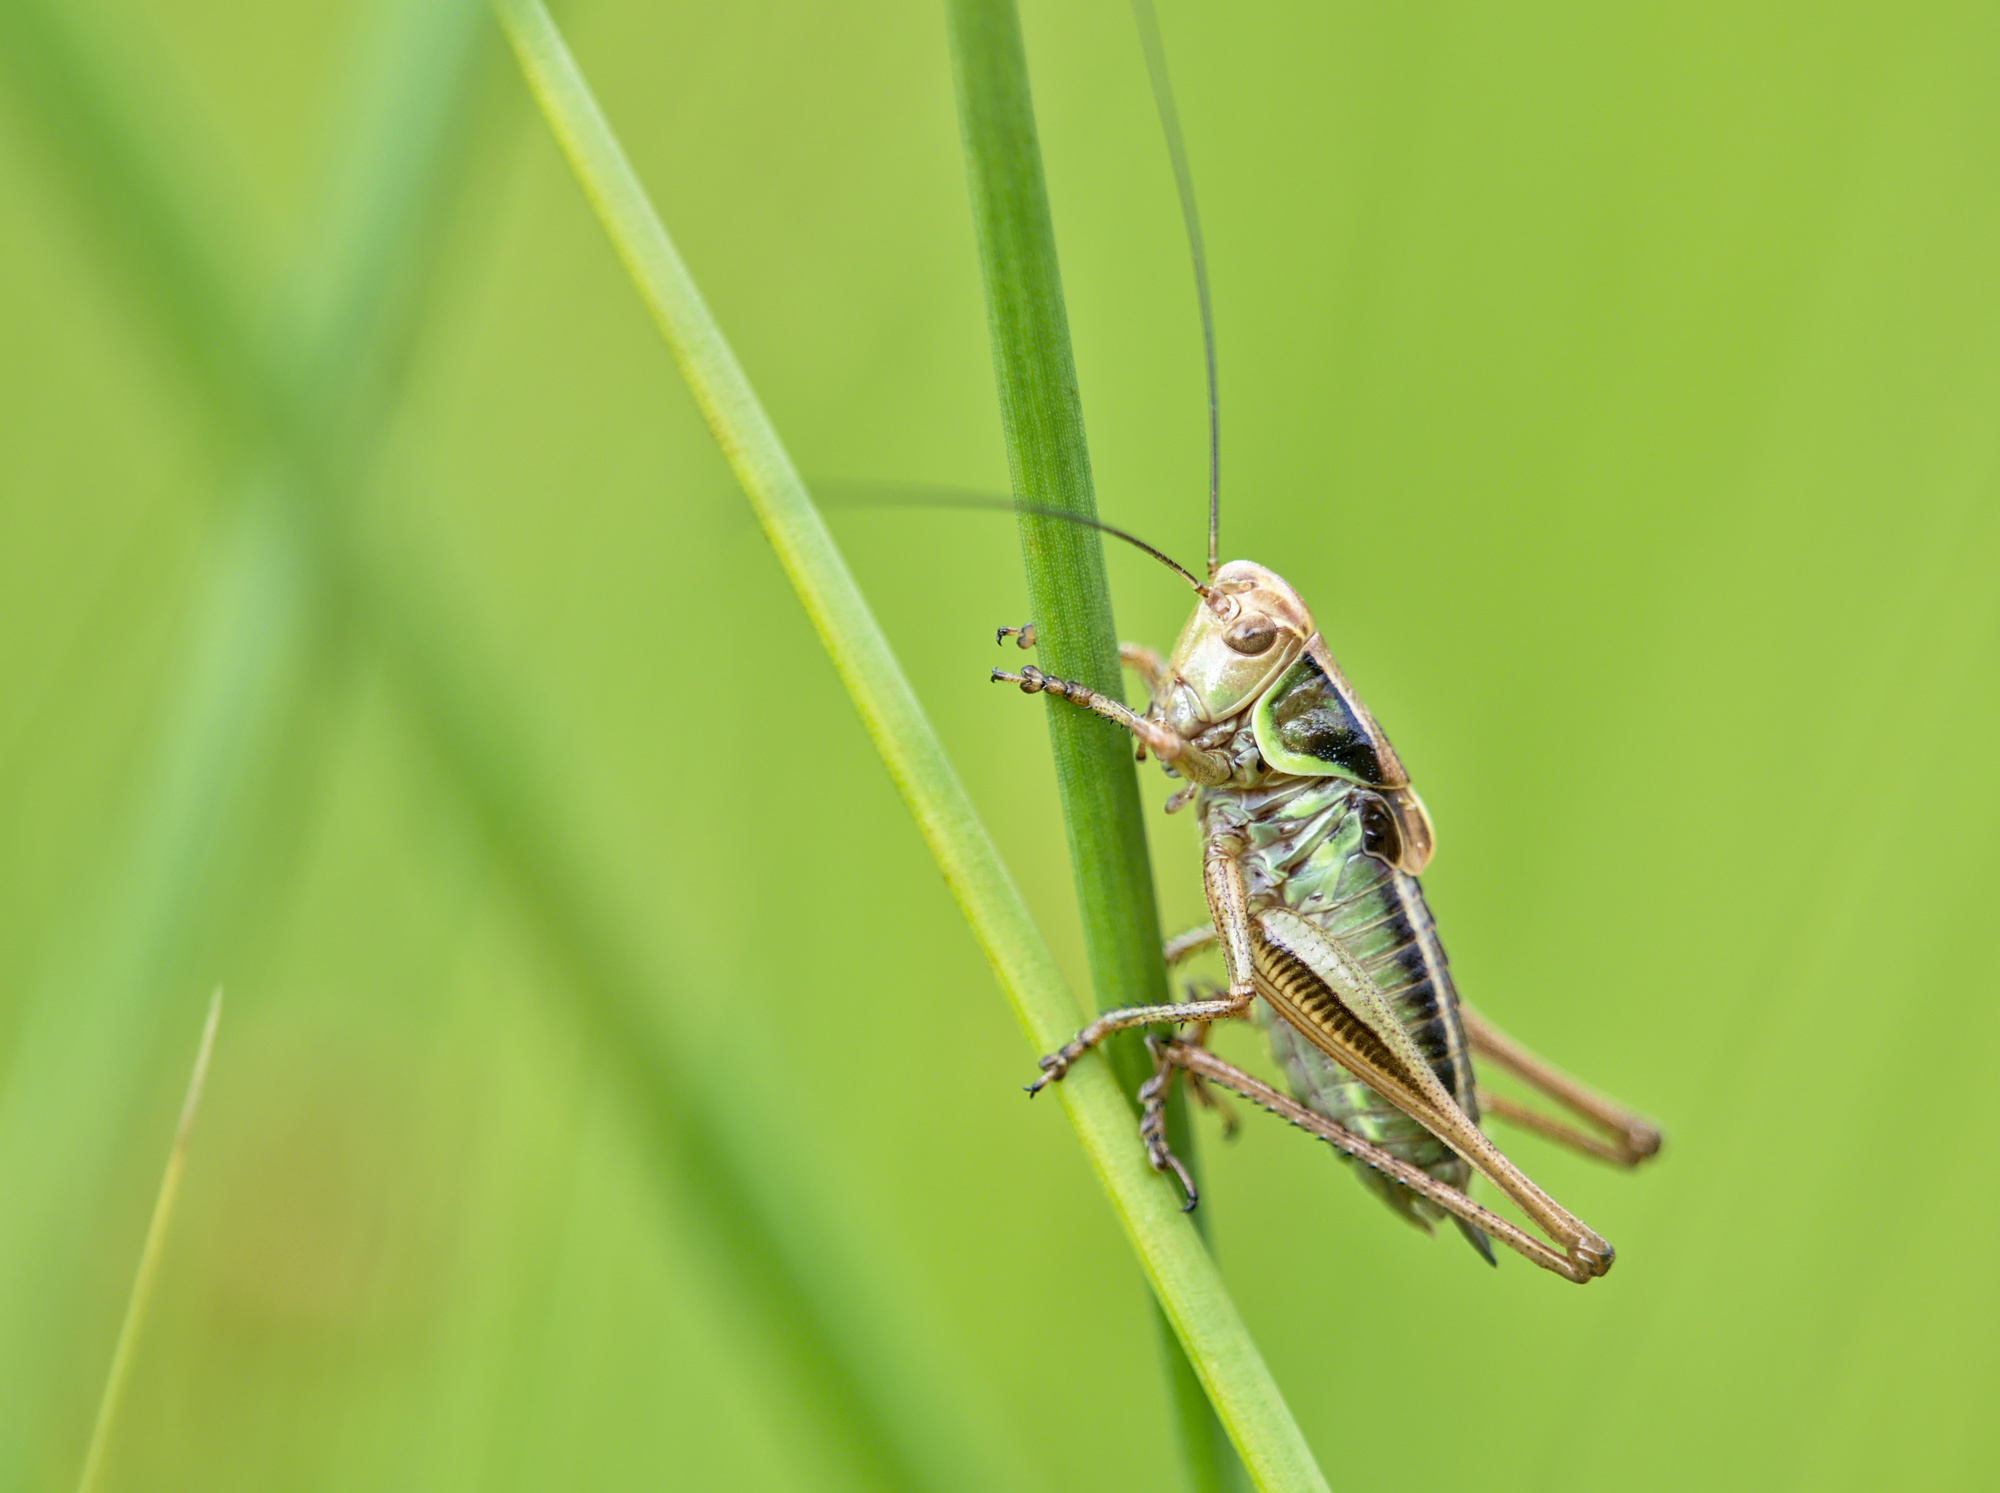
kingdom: Animalia
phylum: Arthropoda
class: Insecta
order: Orthoptera
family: Tettigoniidae
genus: Roeseliana
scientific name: Roeseliana roeselii
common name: Roesel's bush cricket
